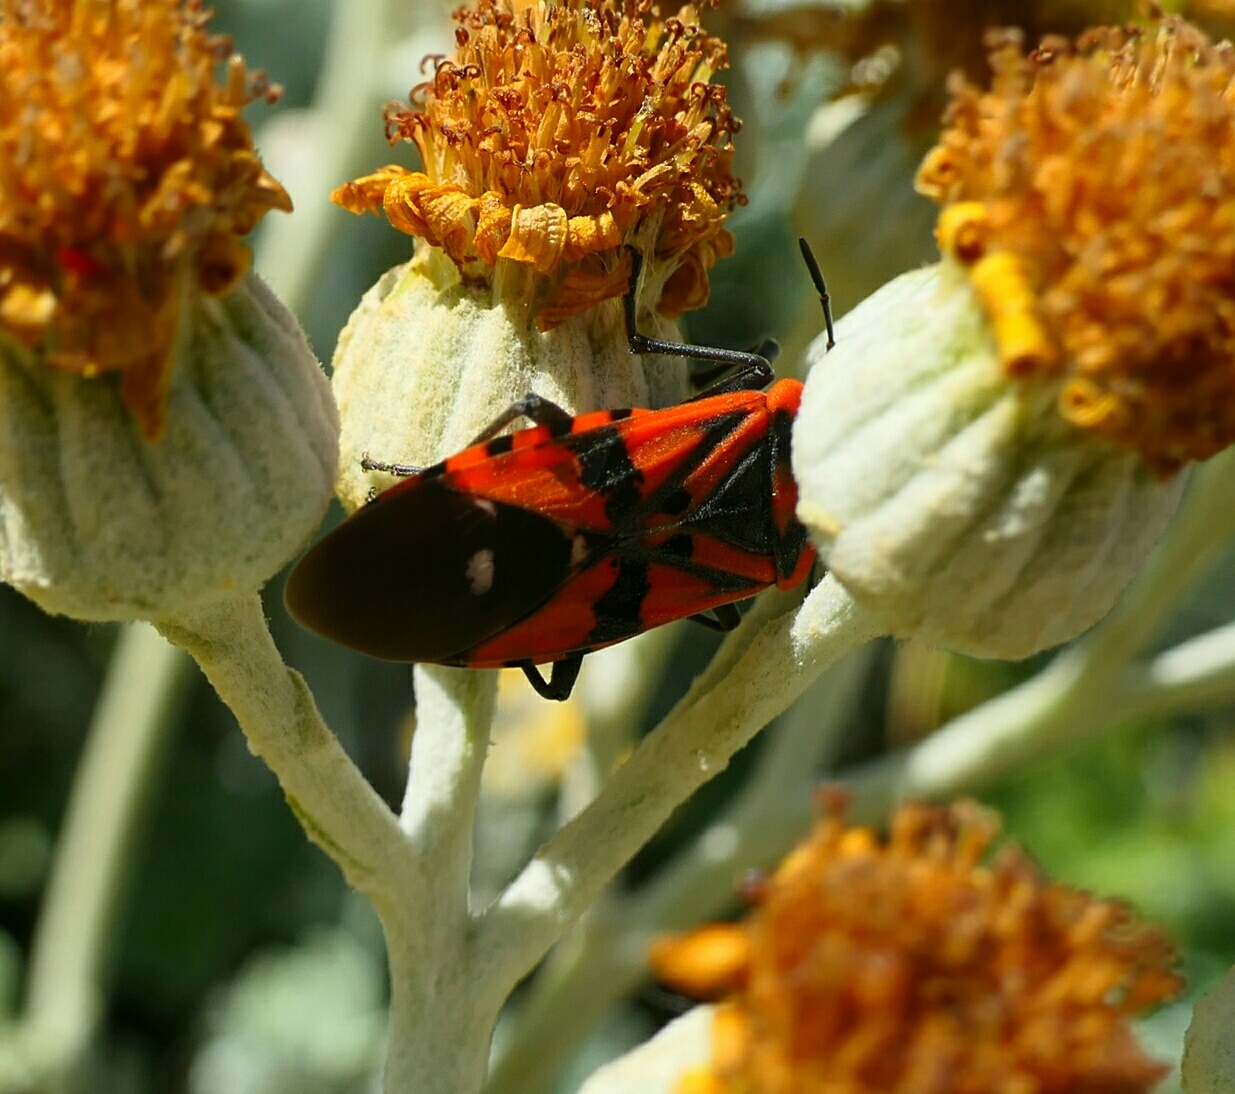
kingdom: Animalia
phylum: Arthropoda
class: Insecta
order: Hemiptera
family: Lygaeidae
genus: Spilostethus
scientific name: Spilostethus pandurus
